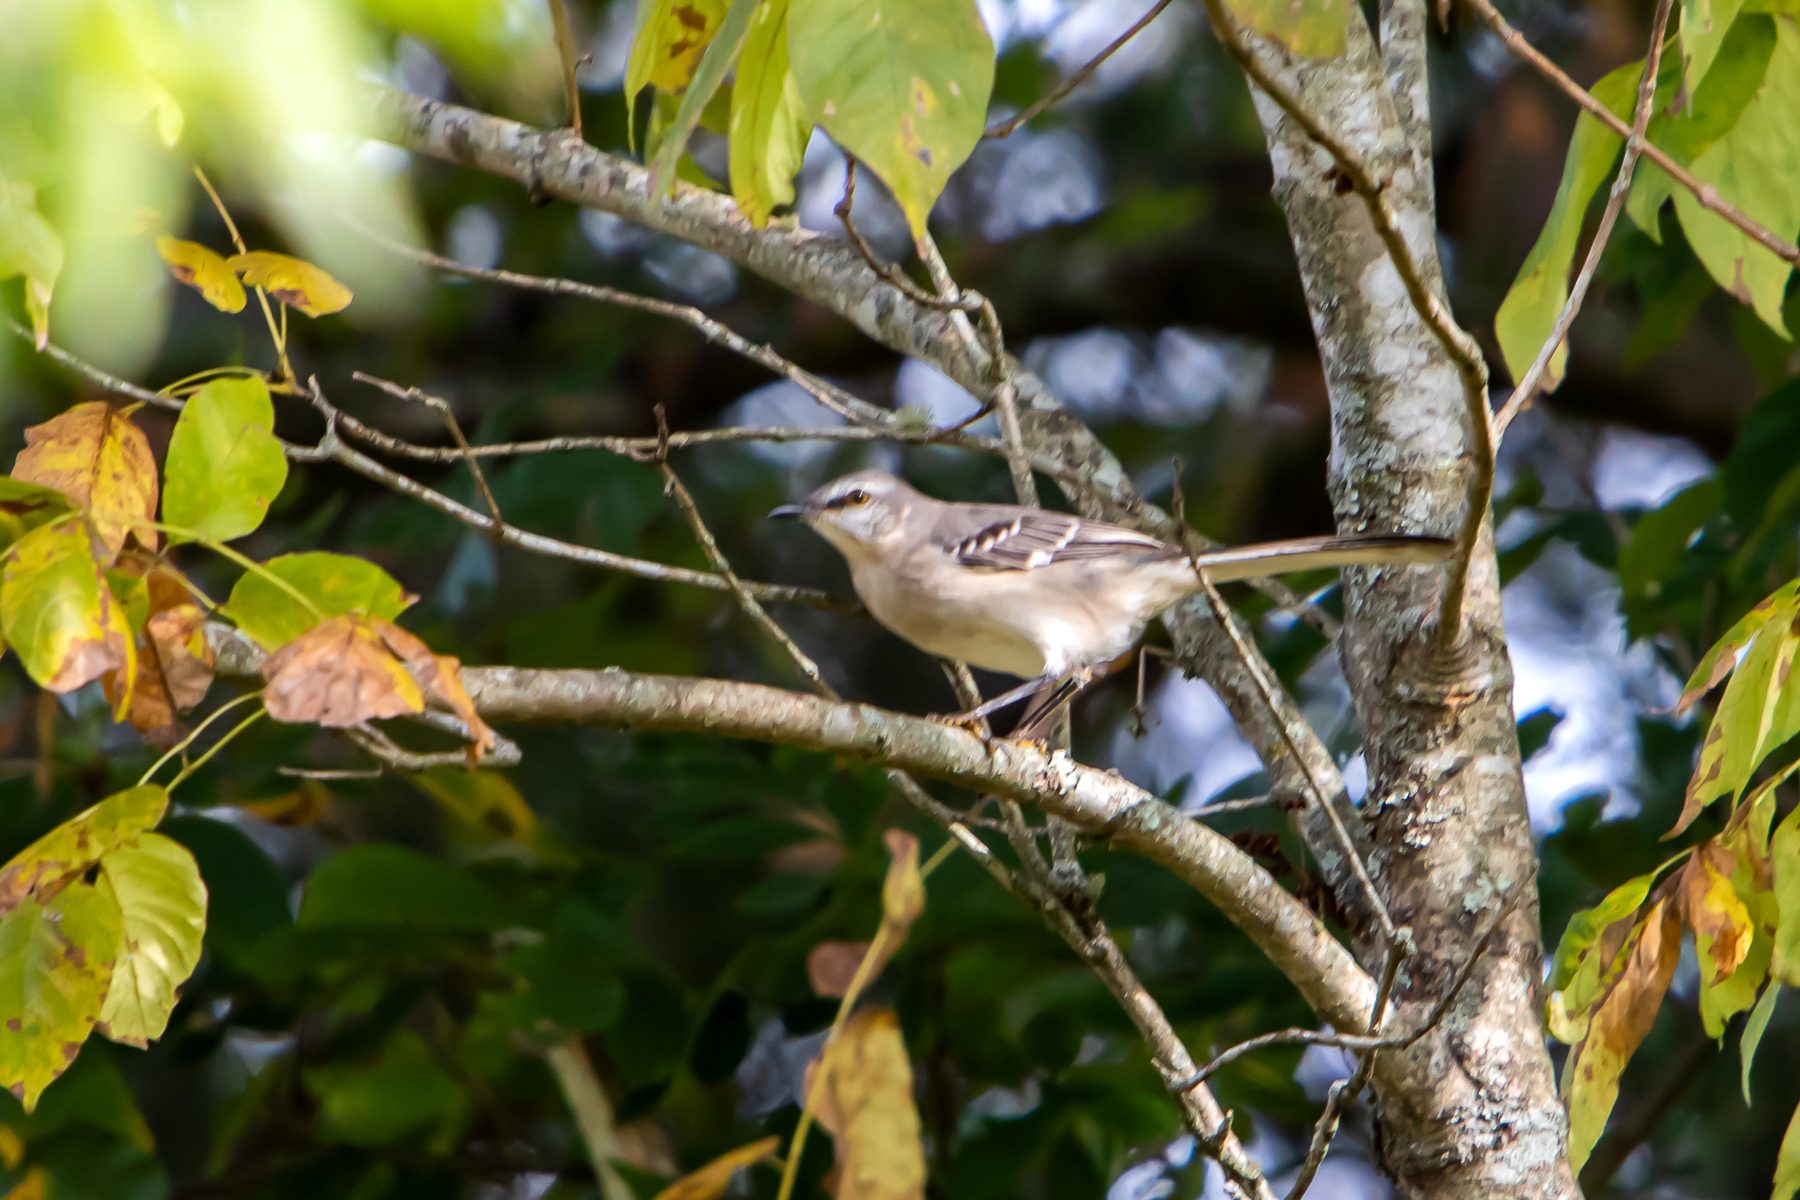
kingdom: Animalia
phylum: Chordata
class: Aves
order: Passeriformes
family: Mimidae
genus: Mimus
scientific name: Mimus polyglottos
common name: Northern mockingbird
